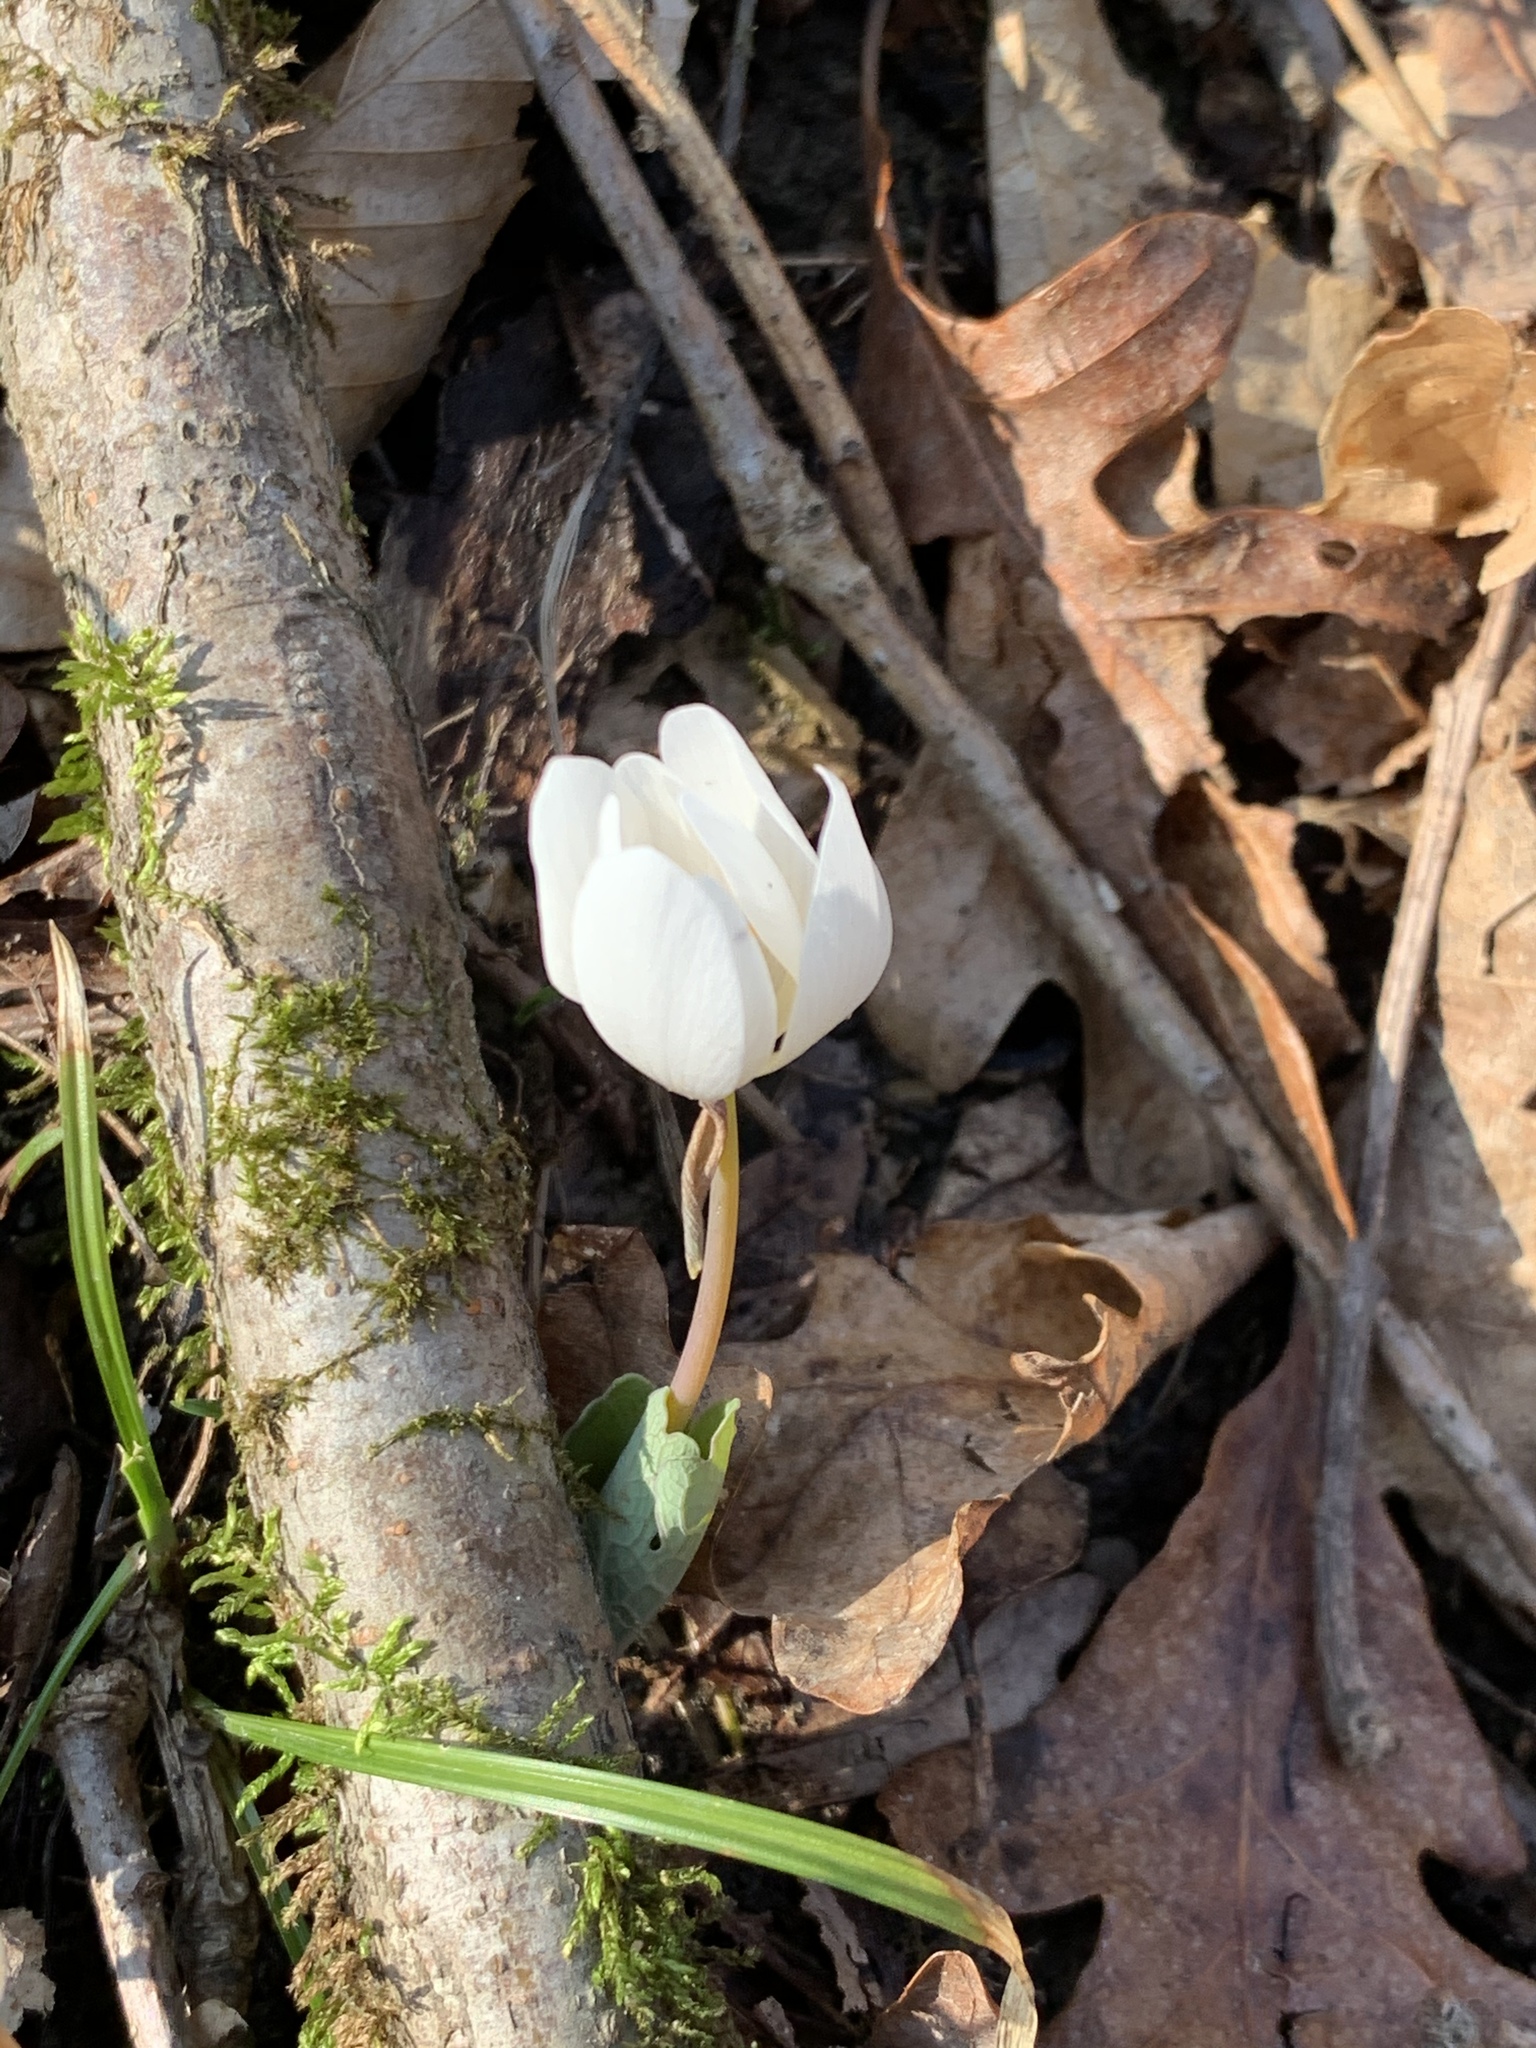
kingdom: Plantae
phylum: Tracheophyta
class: Magnoliopsida
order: Ranunculales
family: Papaveraceae
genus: Sanguinaria
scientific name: Sanguinaria canadensis
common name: Bloodroot
